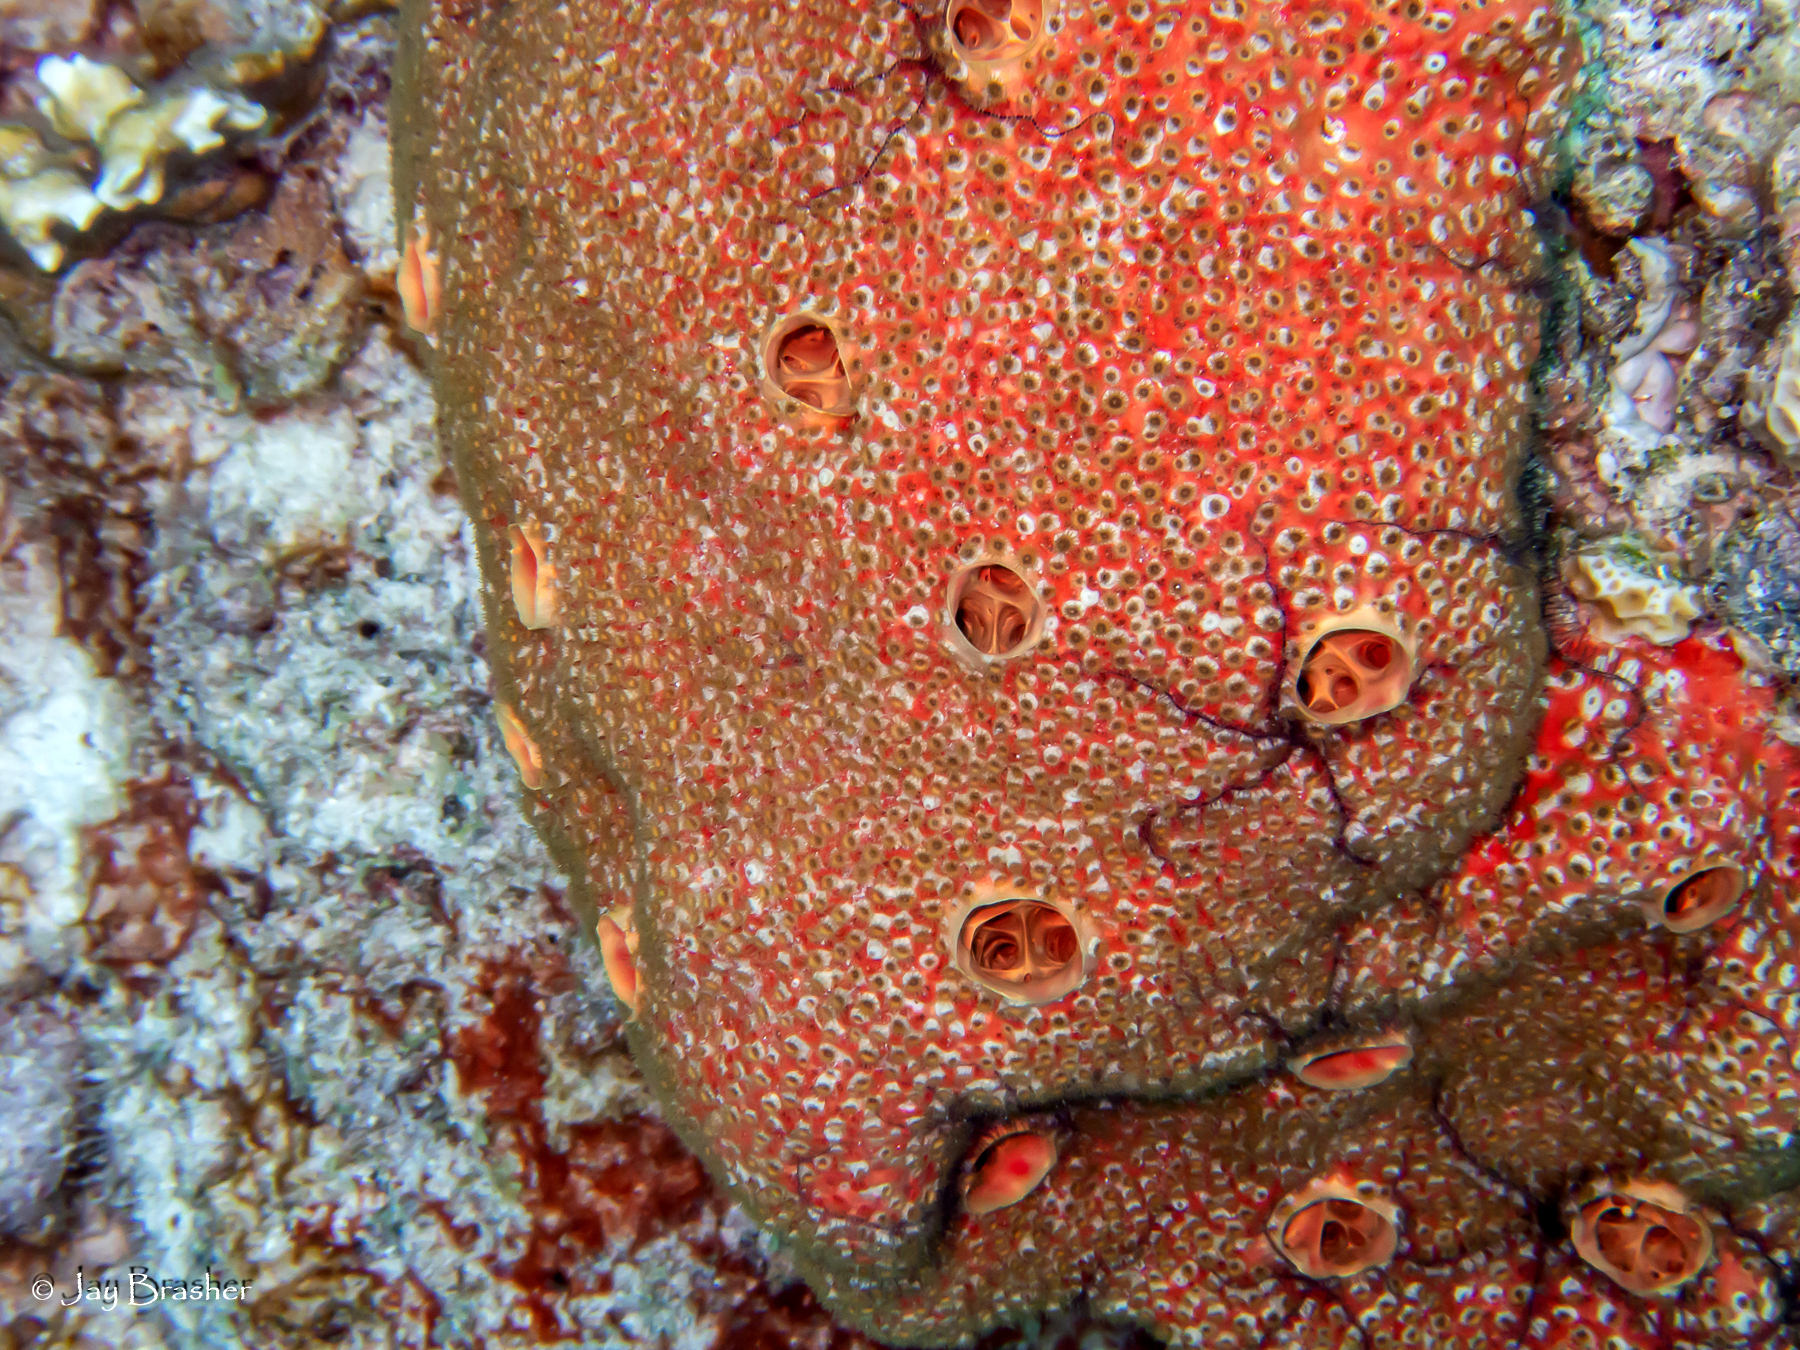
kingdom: Animalia
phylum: Porifera
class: Demospongiae
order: Clionaida
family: Clionaidae
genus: Cliothosa
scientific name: Cliothosa delitrix
